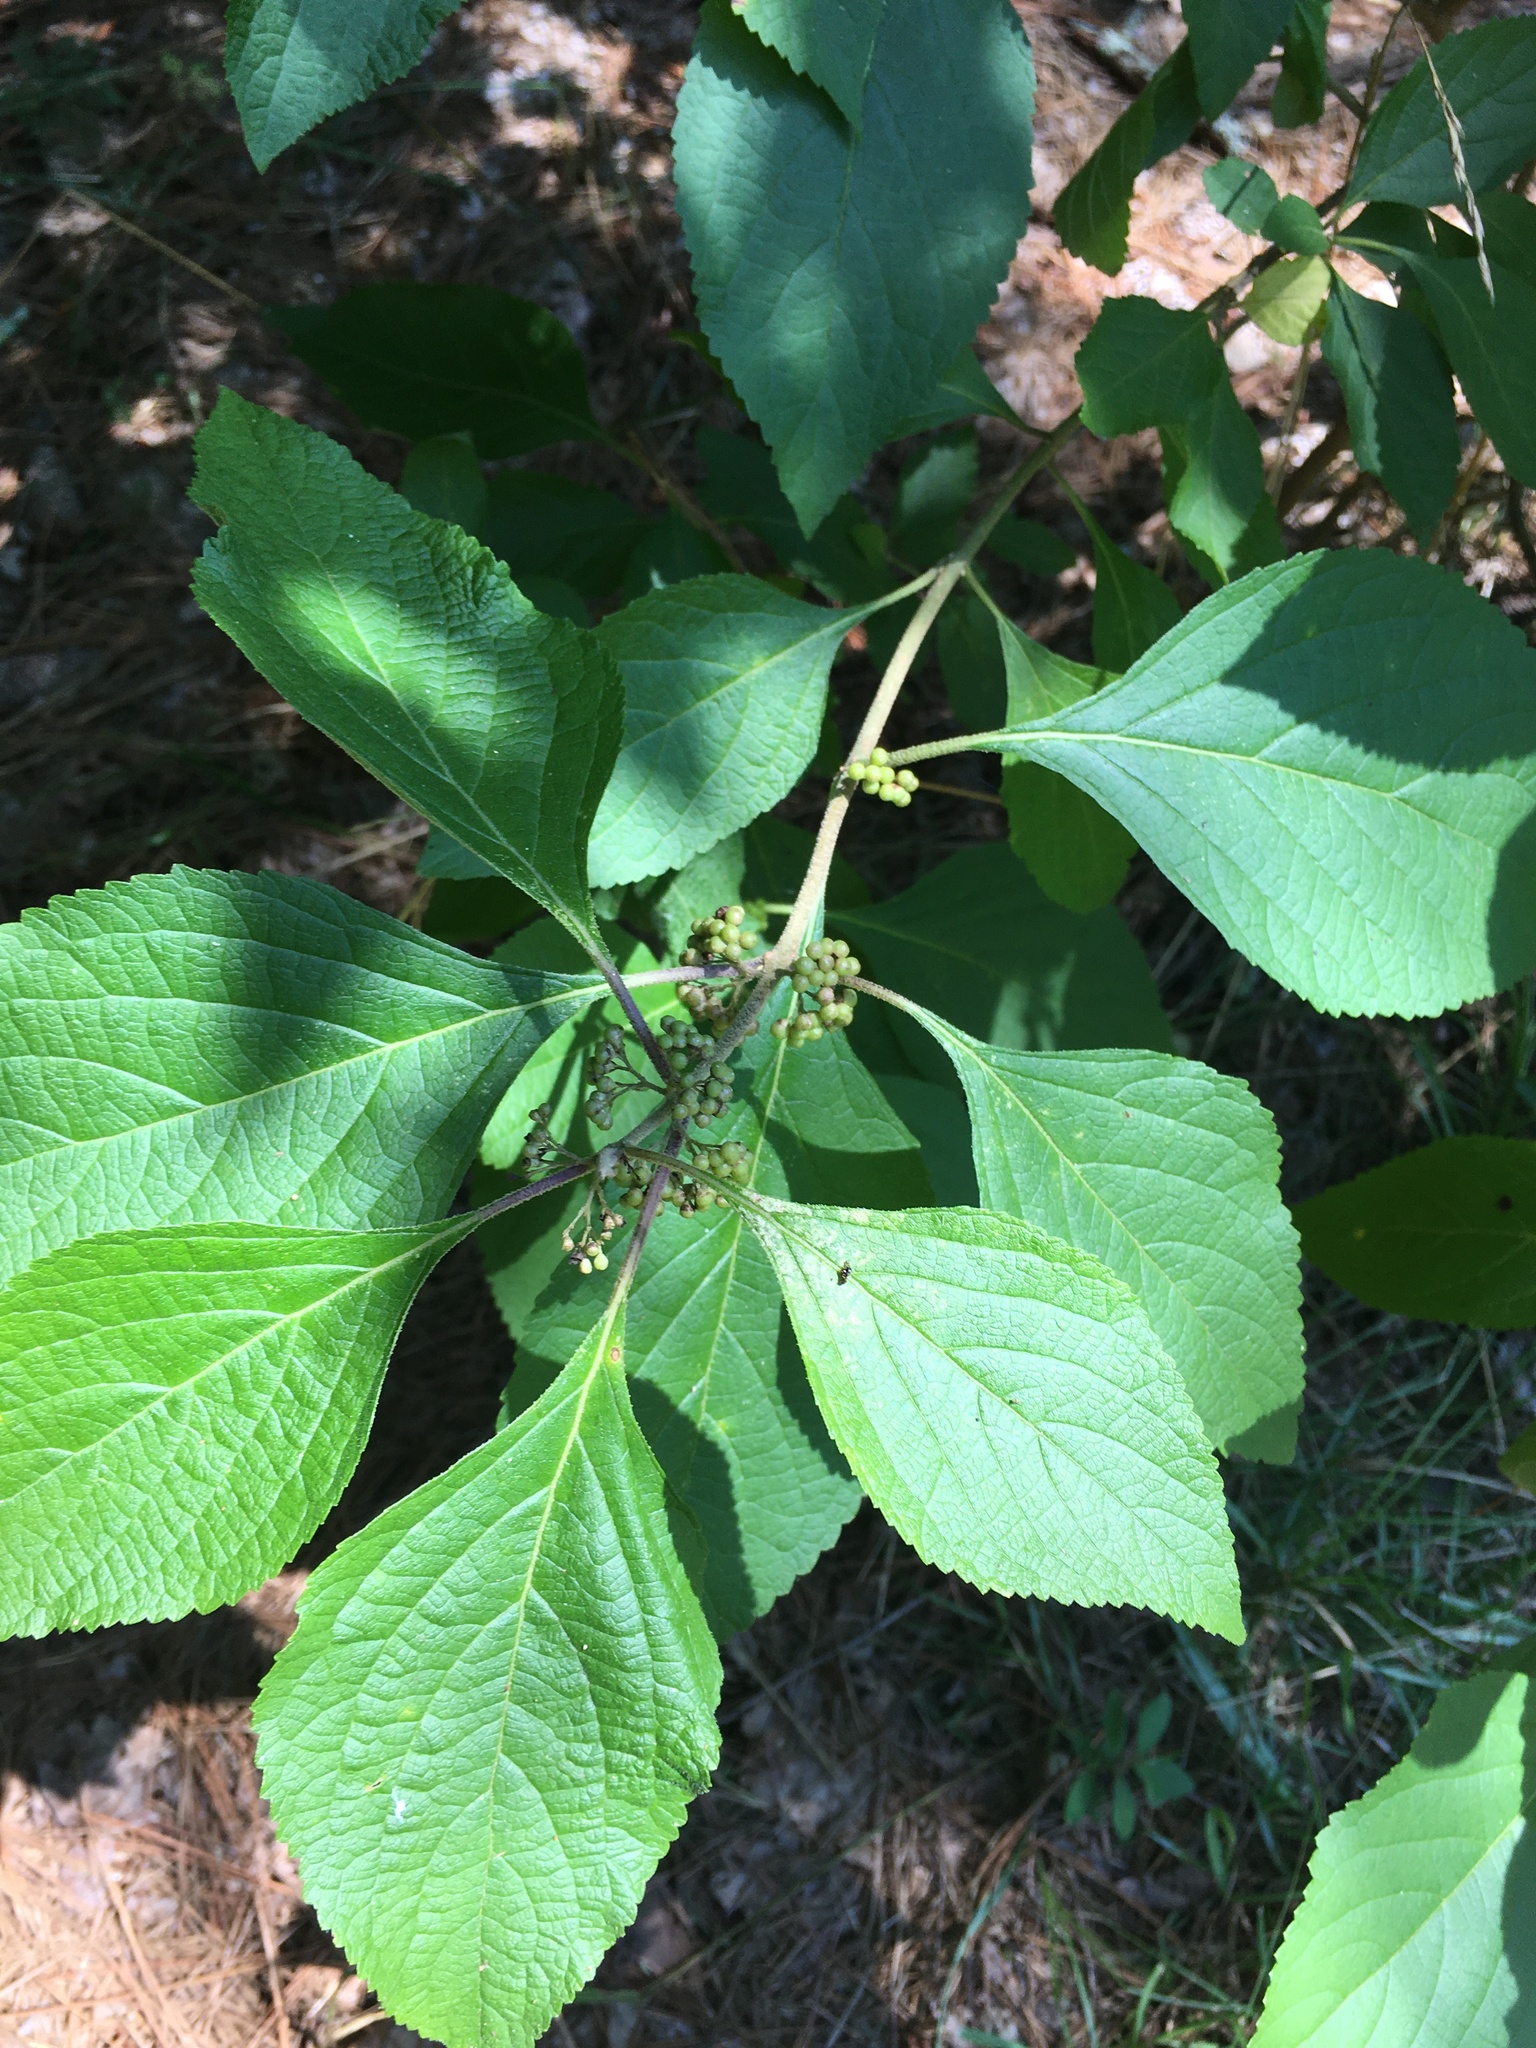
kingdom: Plantae
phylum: Tracheophyta
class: Magnoliopsida
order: Lamiales
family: Lamiaceae
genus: Callicarpa
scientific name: Callicarpa americana
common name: American beautyberry
